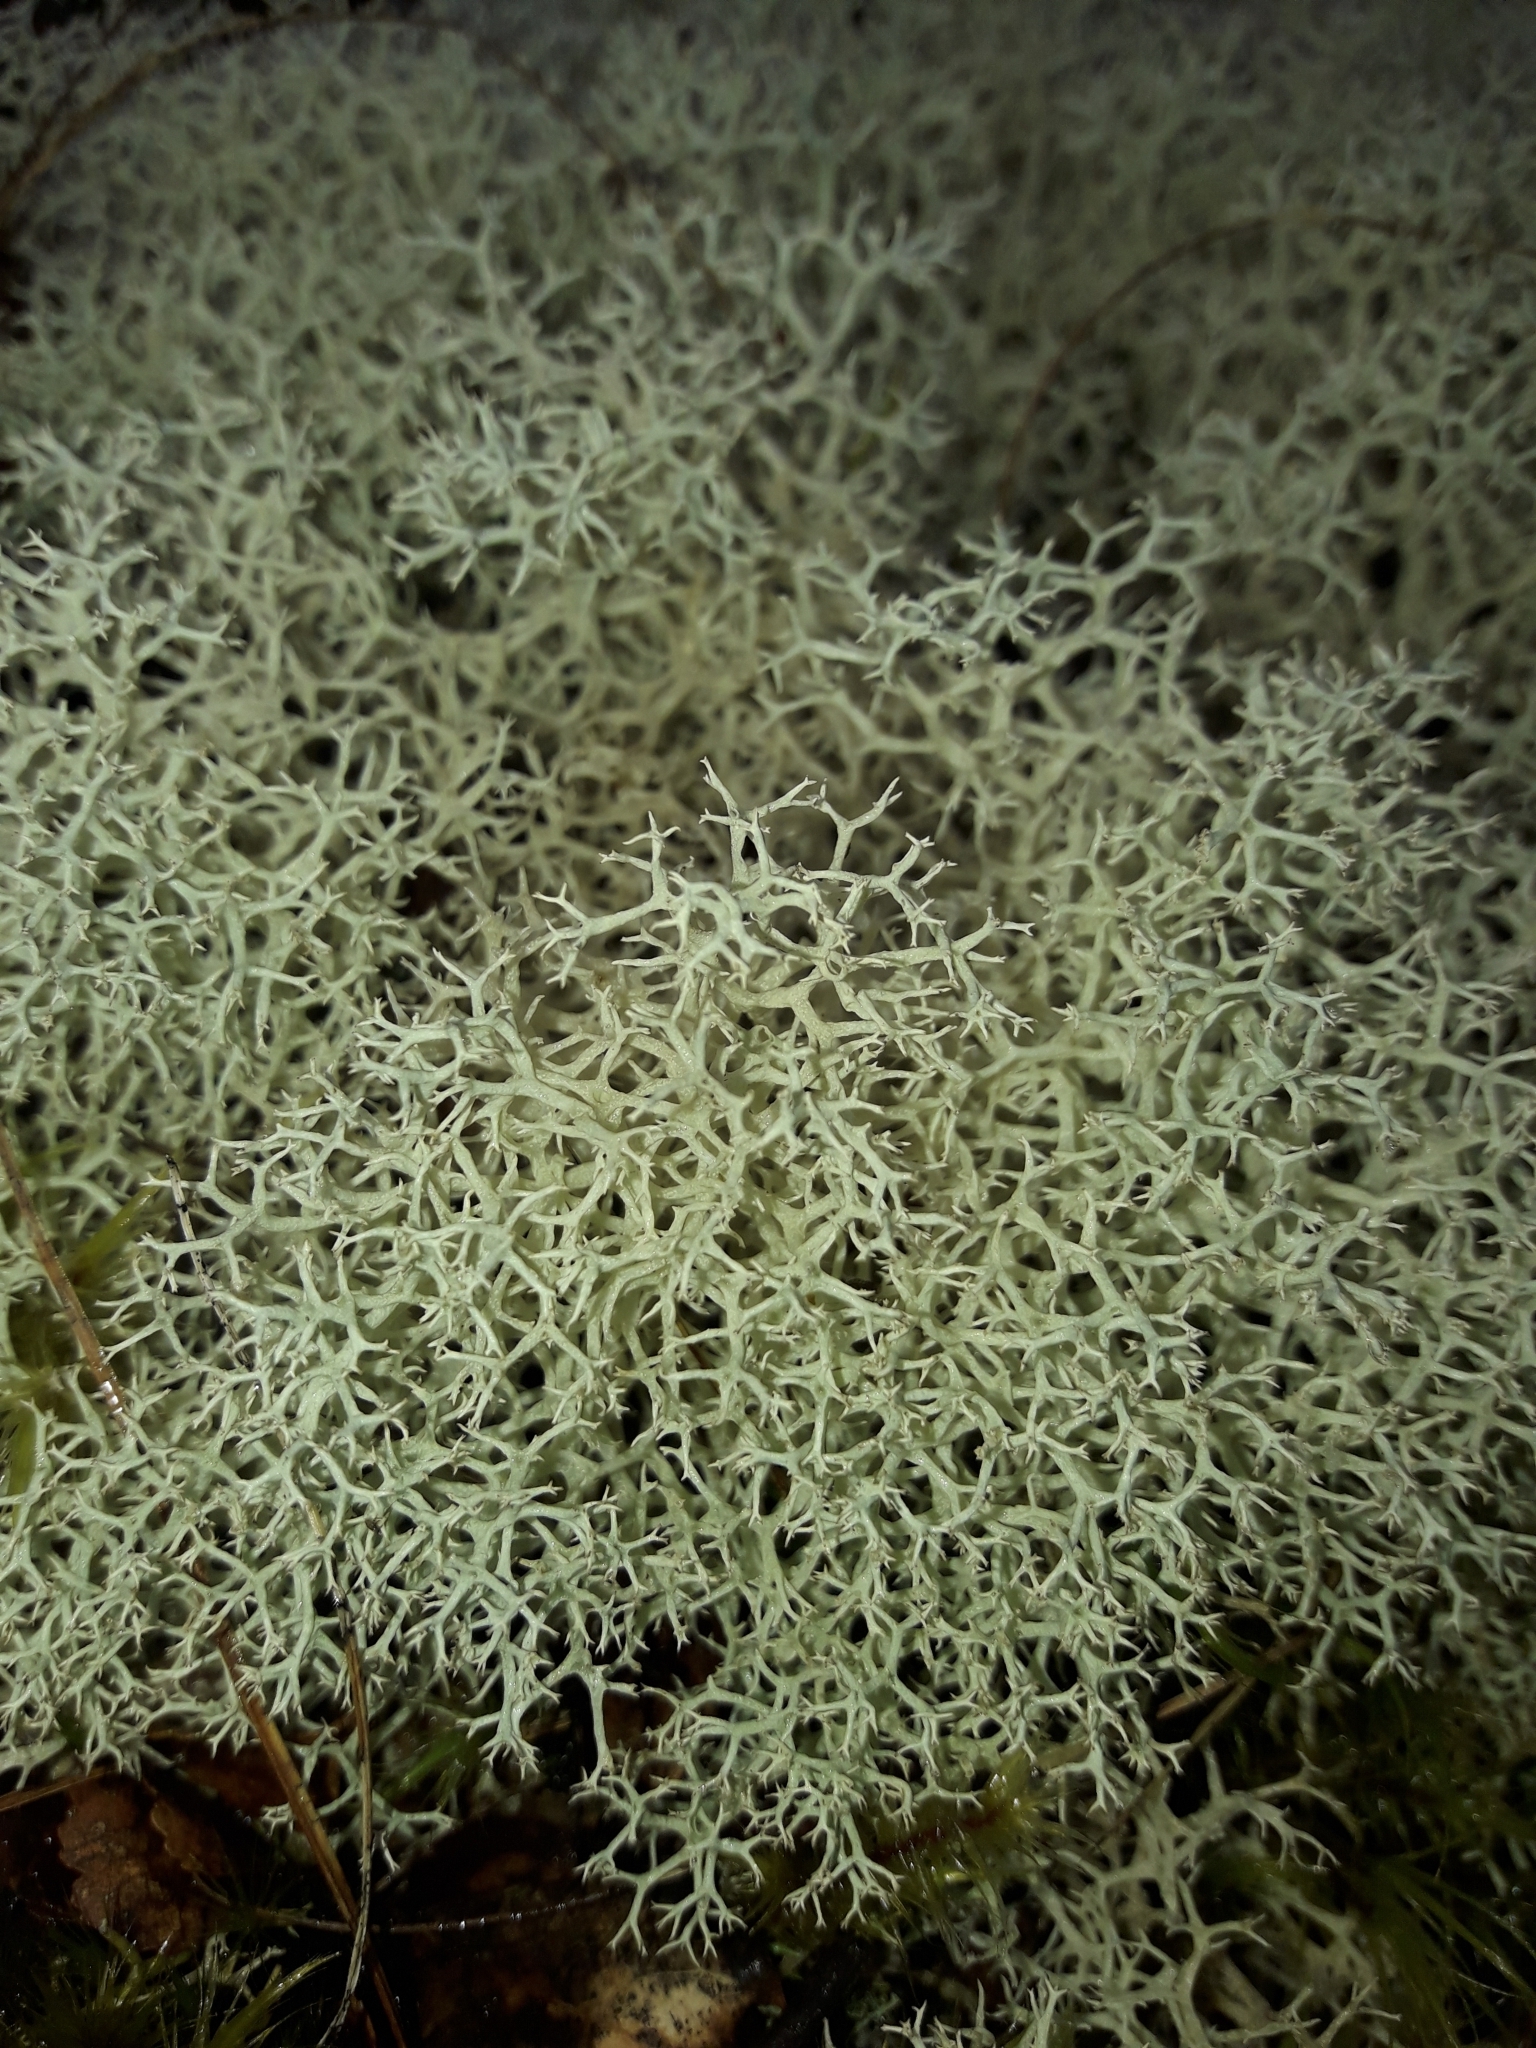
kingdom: Fungi
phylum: Ascomycota
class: Lecanoromycetes
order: Lecanorales
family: Cladoniaceae
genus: Cladonia
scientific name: Cladonia confusa
